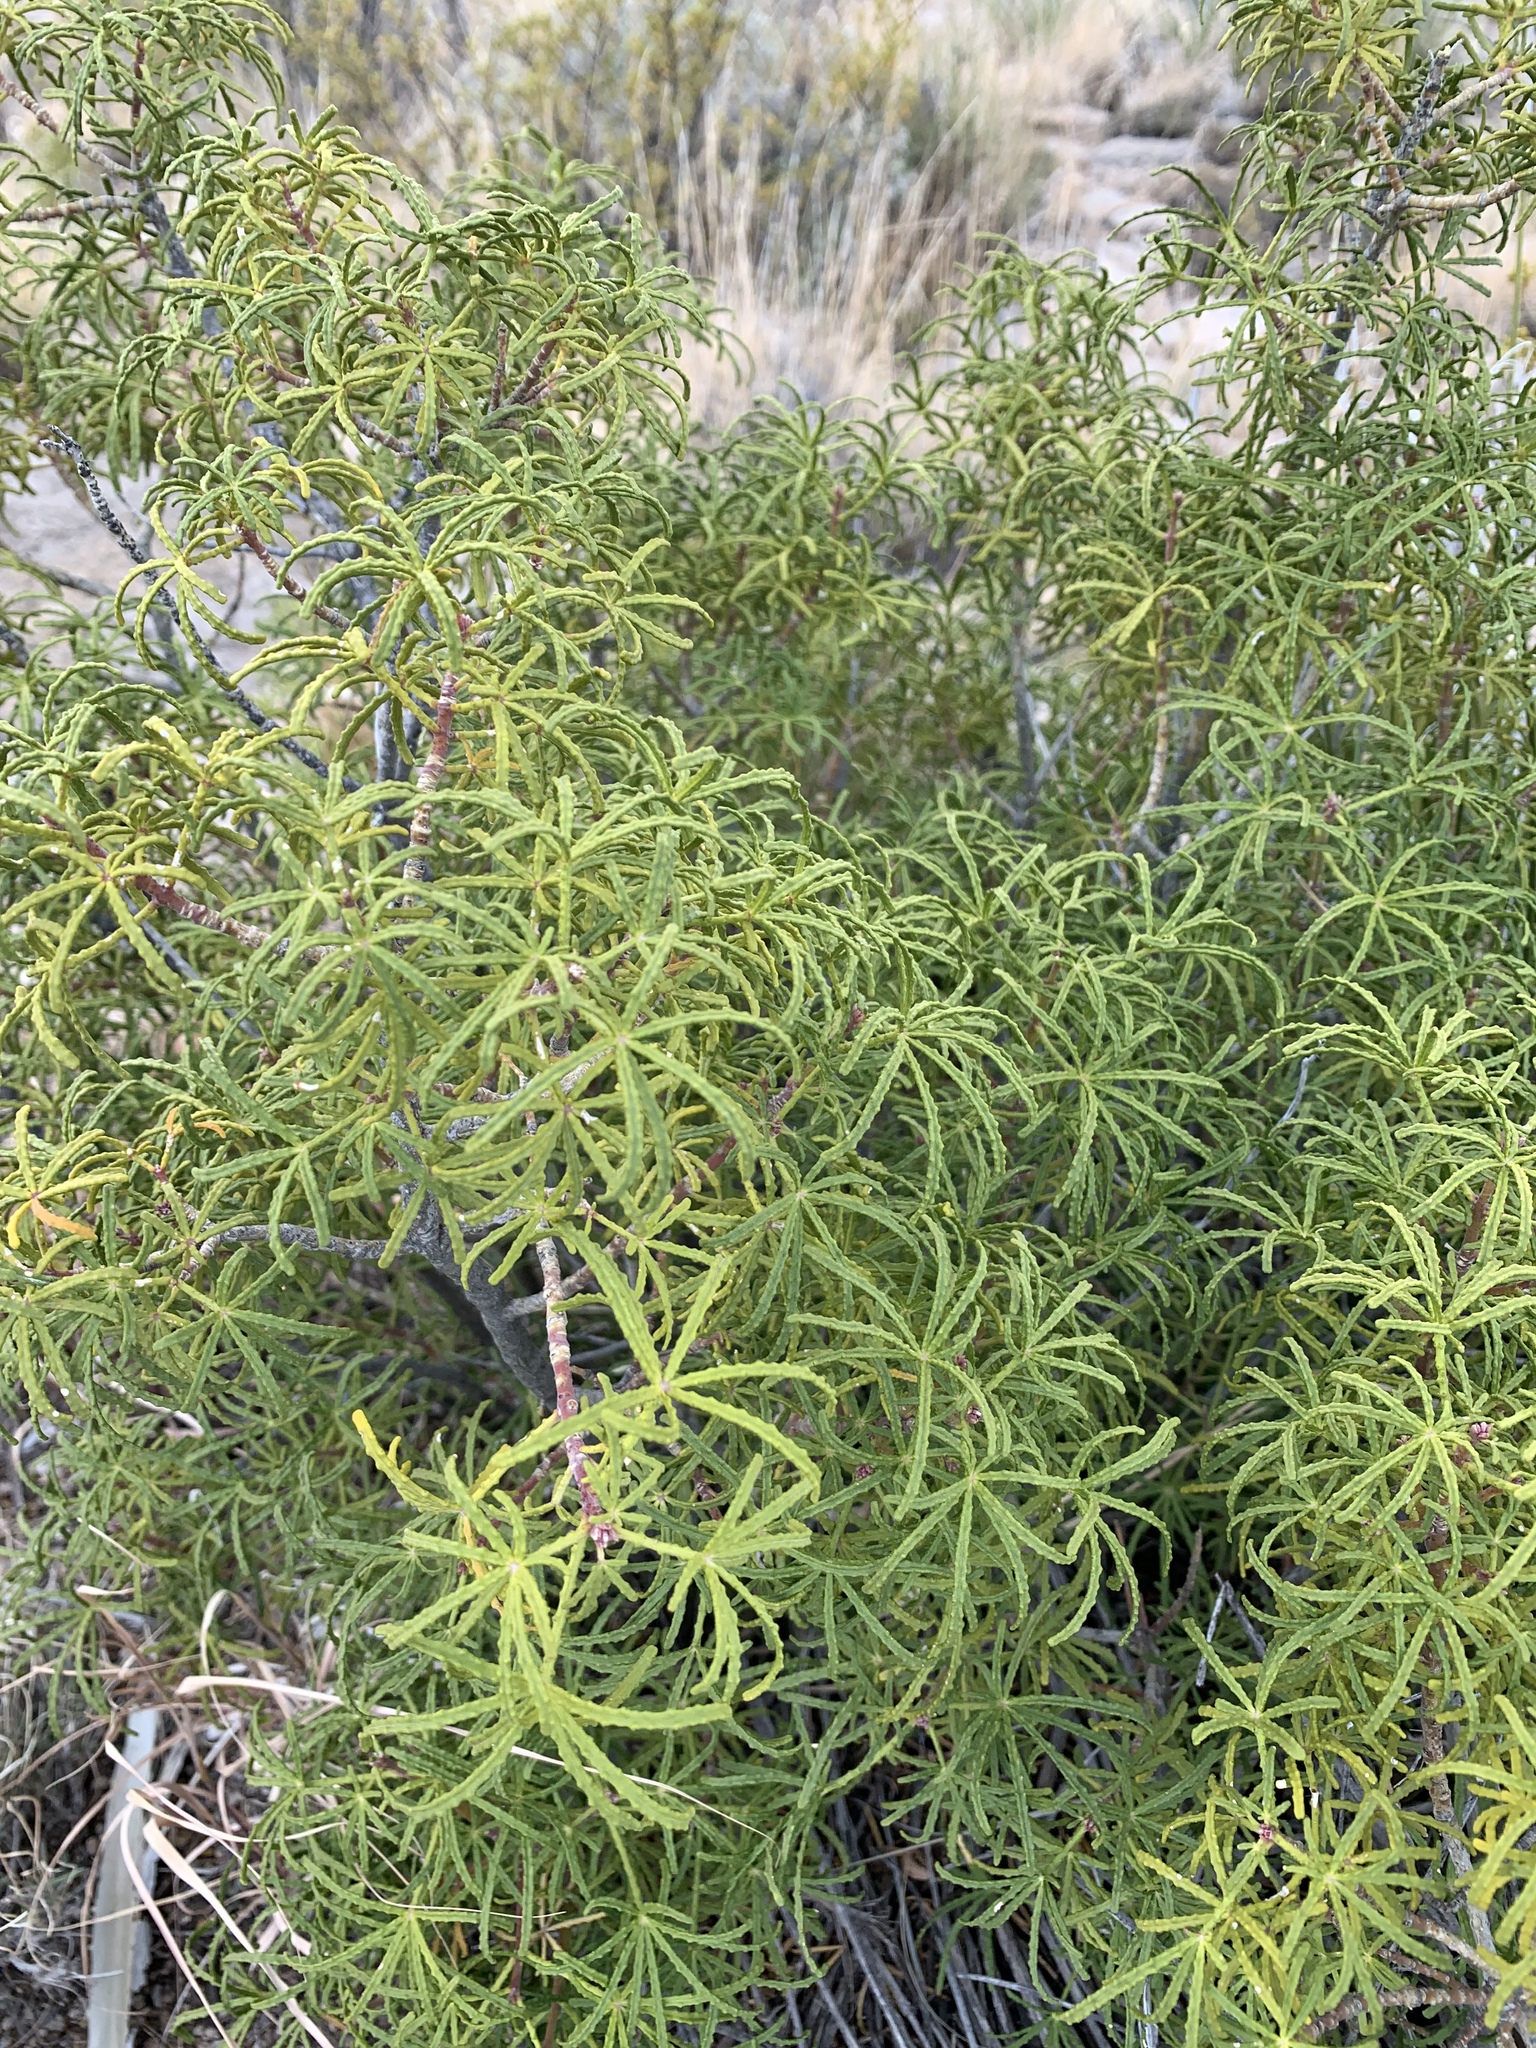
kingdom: Plantae
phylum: Tracheophyta
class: Magnoliopsida
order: Sapindales
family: Rutaceae
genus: Choisya
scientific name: Choisya dumosa
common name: Mexican-orange
